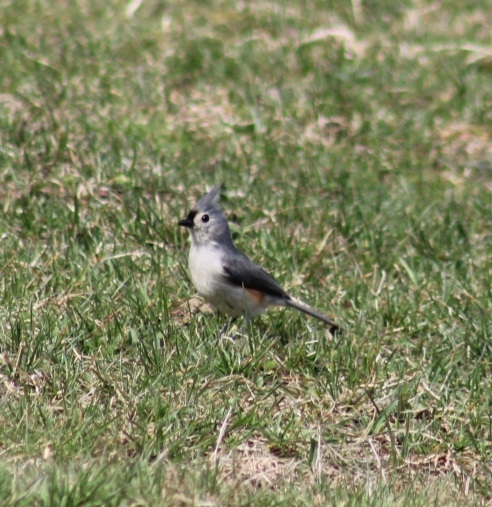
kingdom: Animalia
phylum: Chordata
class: Aves
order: Passeriformes
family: Paridae
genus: Baeolophus
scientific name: Baeolophus bicolor
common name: Tufted titmouse
